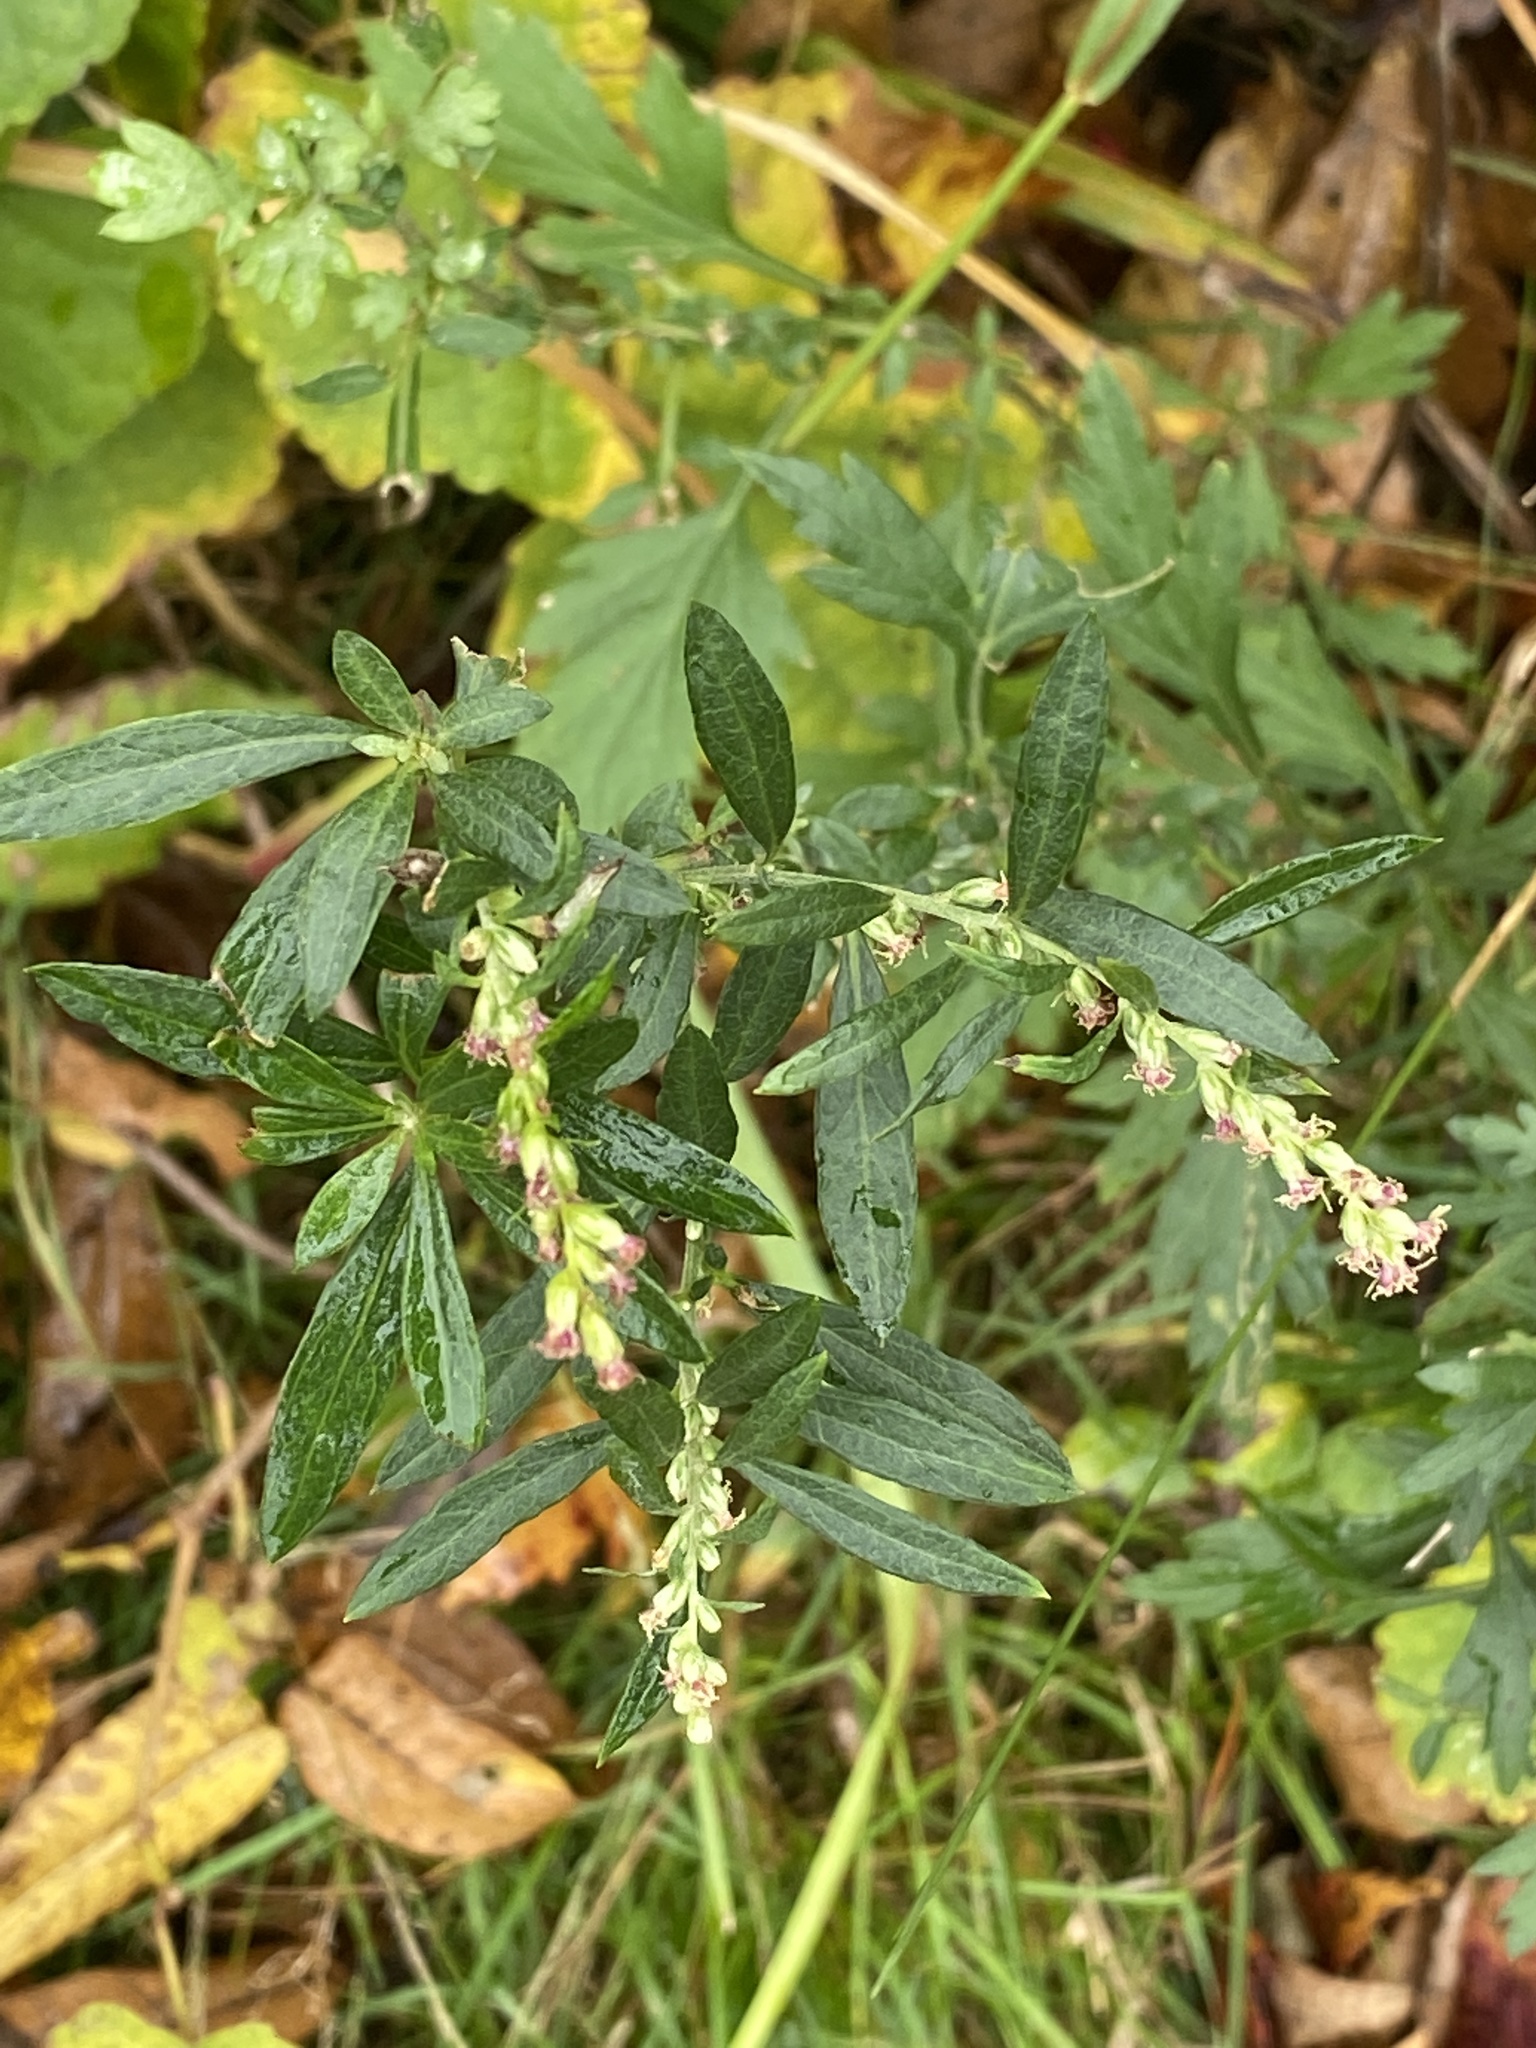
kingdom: Plantae
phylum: Tracheophyta
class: Magnoliopsida
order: Asterales
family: Asteraceae
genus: Artemisia
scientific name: Artemisia vulgaris
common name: Mugwort
